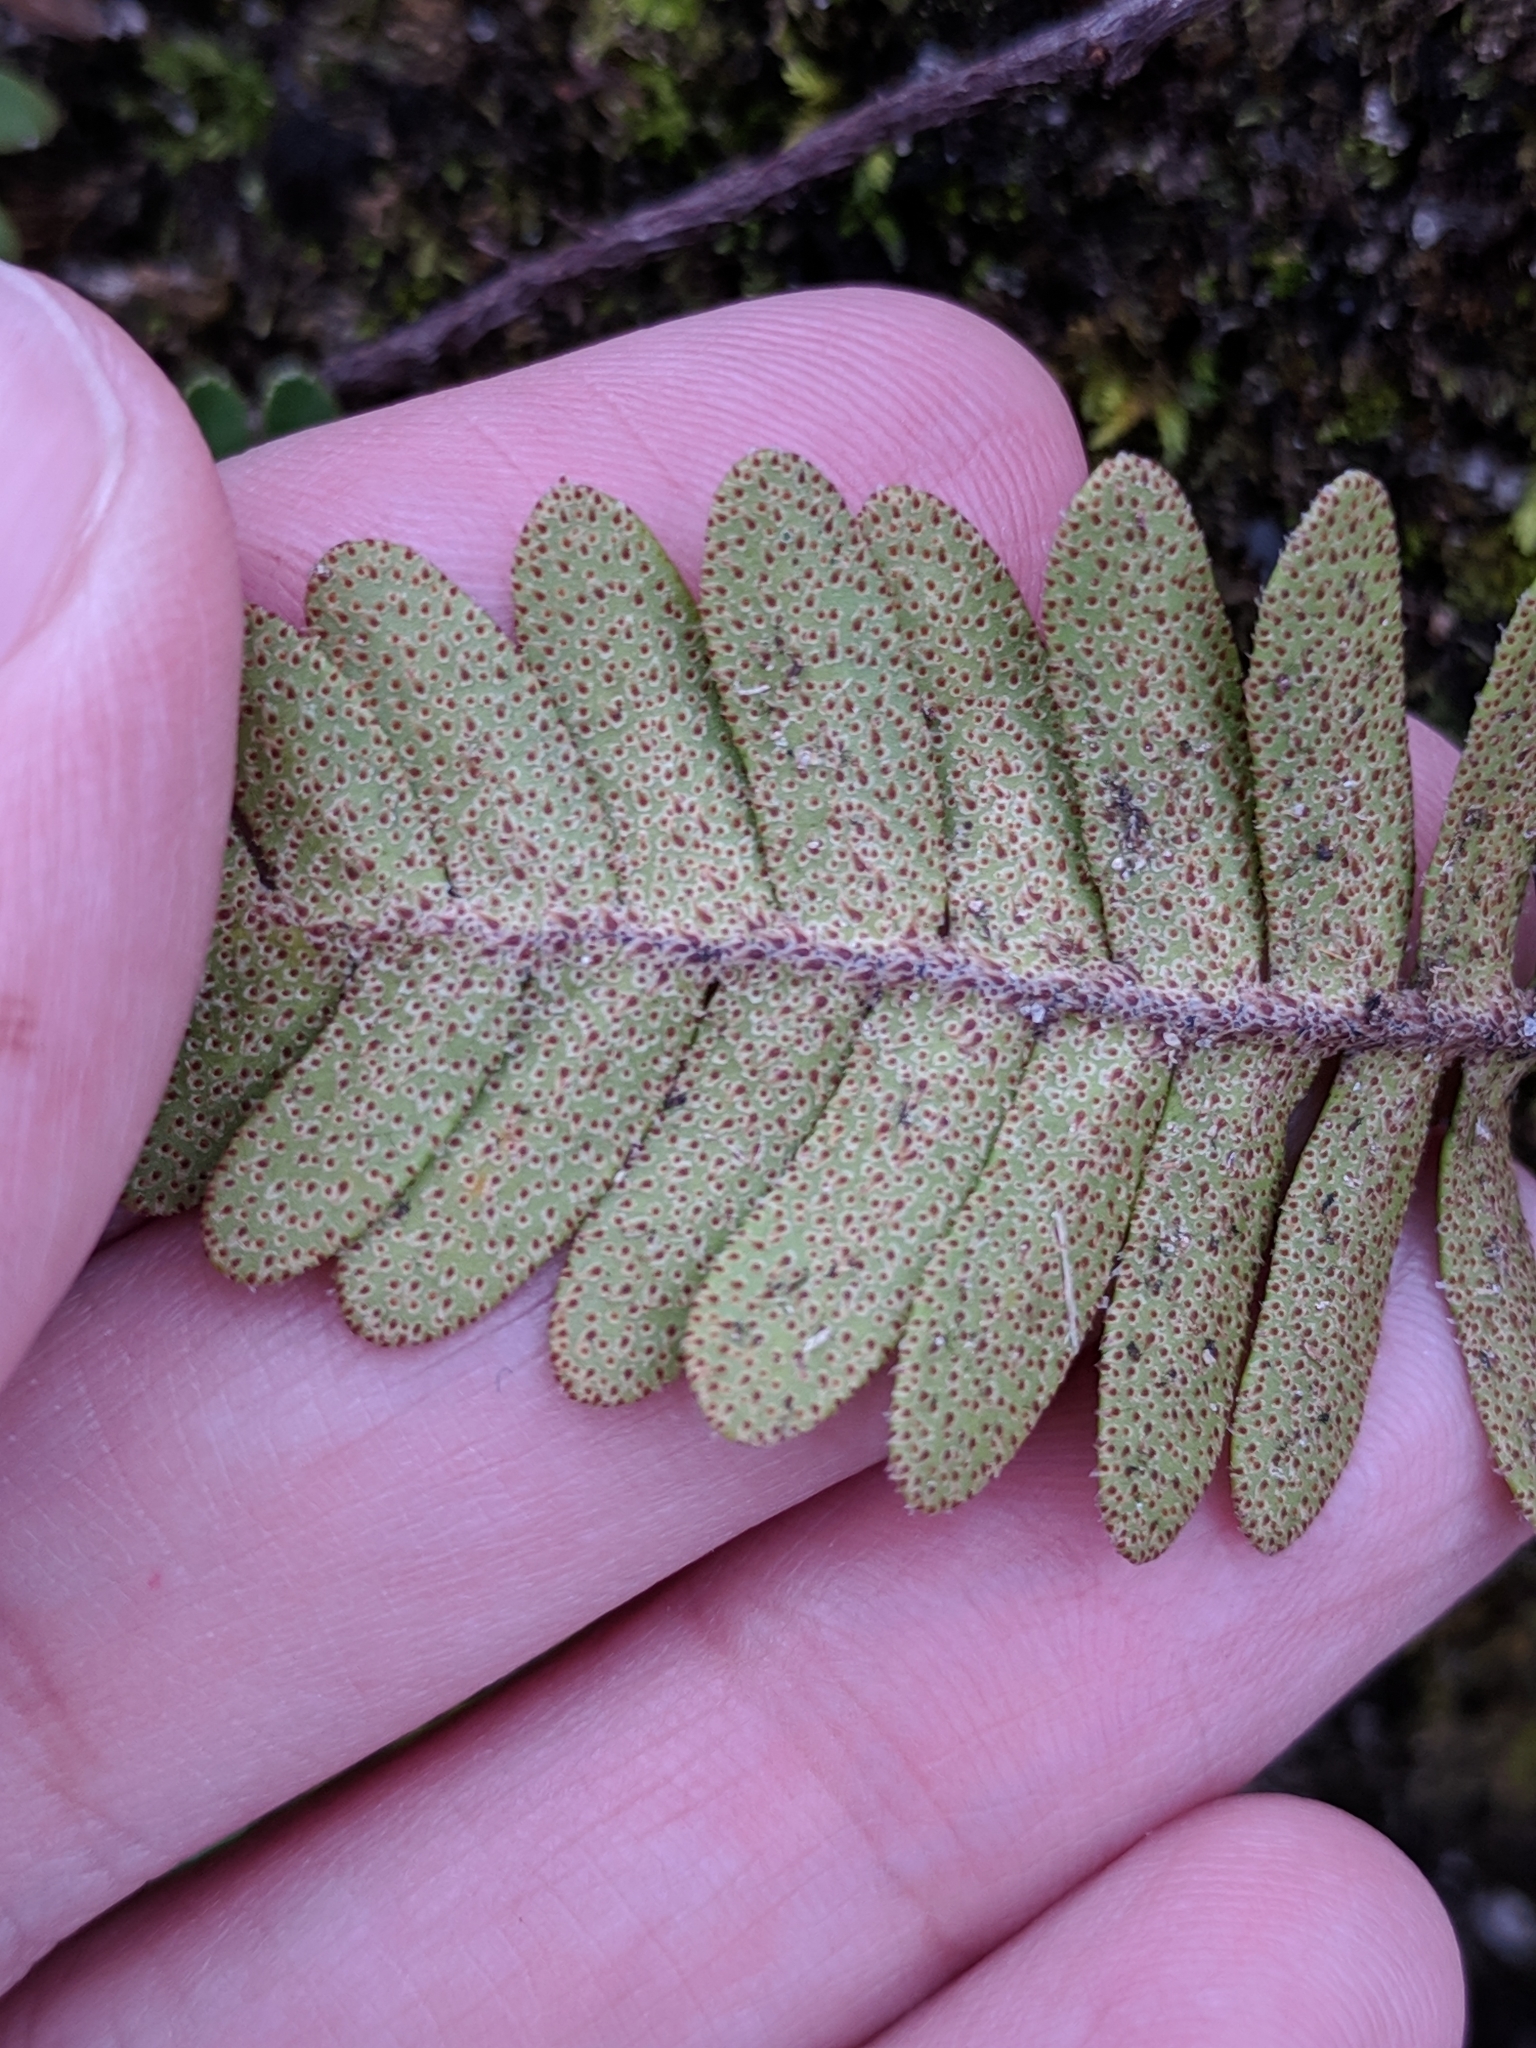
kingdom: Plantae
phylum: Tracheophyta
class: Polypodiopsida
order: Polypodiales
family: Polypodiaceae
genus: Pleopeltis
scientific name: Pleopeltis michauxiana
